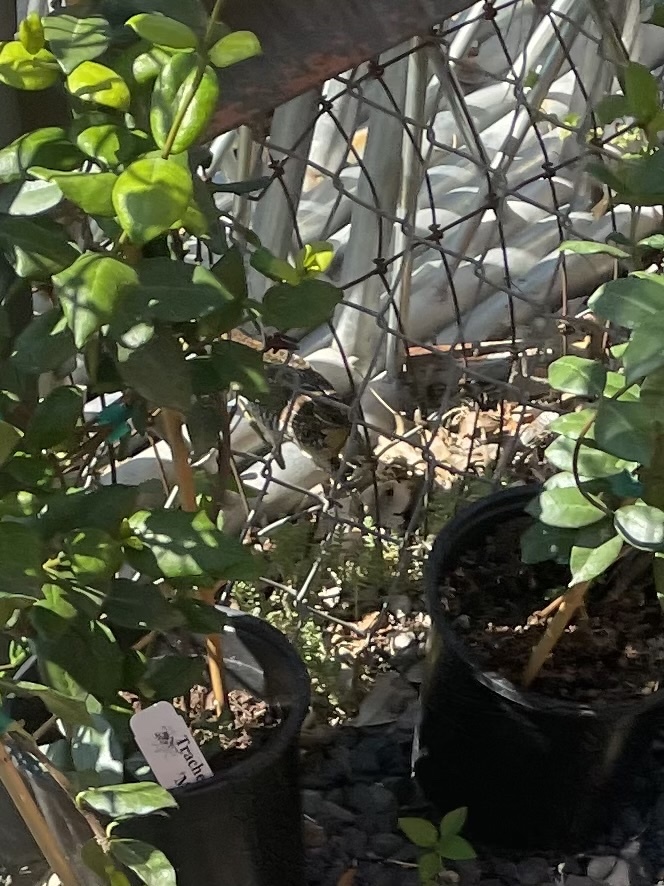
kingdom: Animalia
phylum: Chordata
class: Aves
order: Gruiformes
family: Rallidae
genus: Porzana
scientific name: Porzana carolina
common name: Sora
